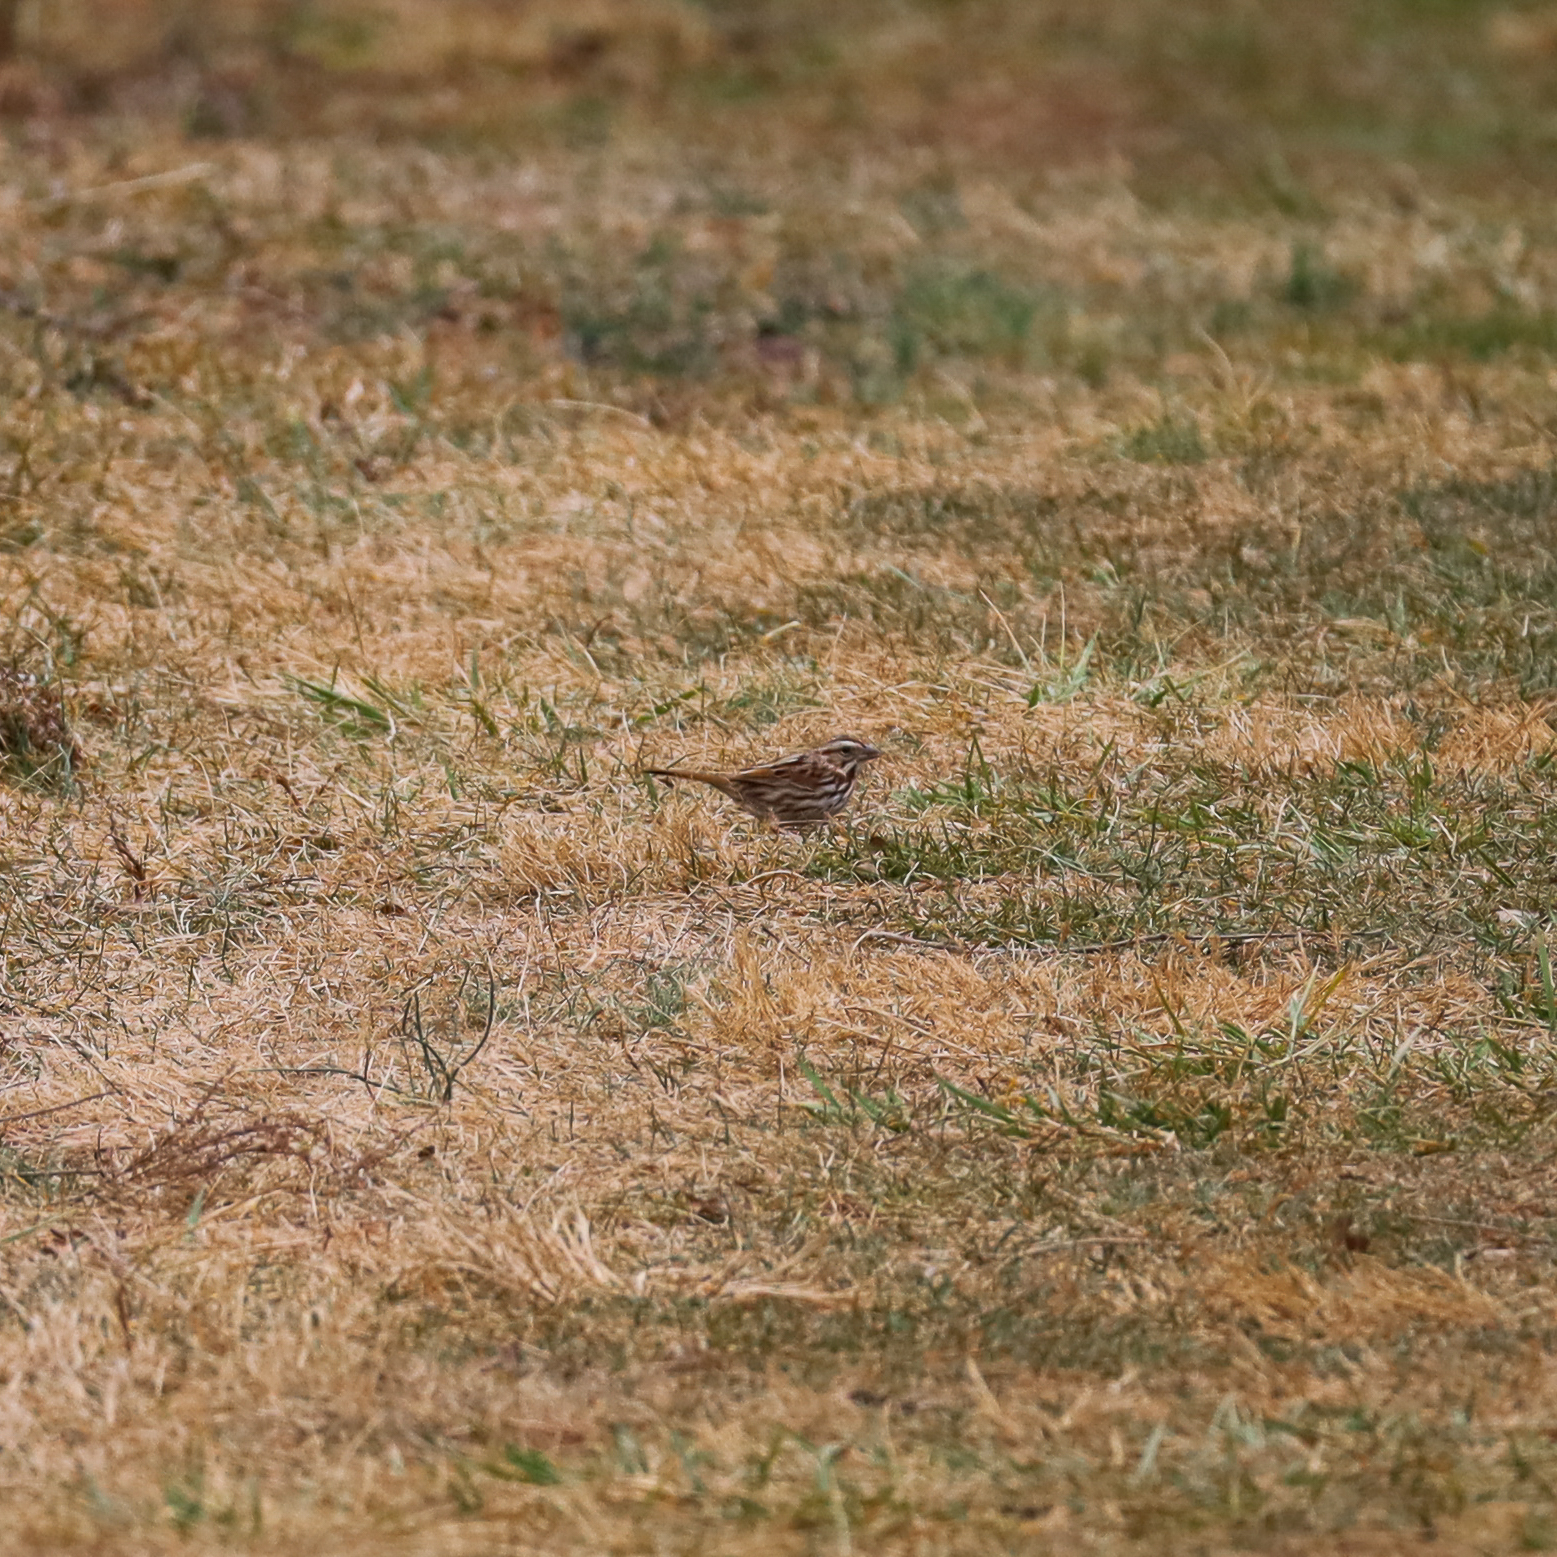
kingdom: Animalia
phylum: Chordata
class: Aves
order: Passeriformes
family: Passerellidae
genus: Melospiza
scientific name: Melospiza melodia
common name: Song sparrow
